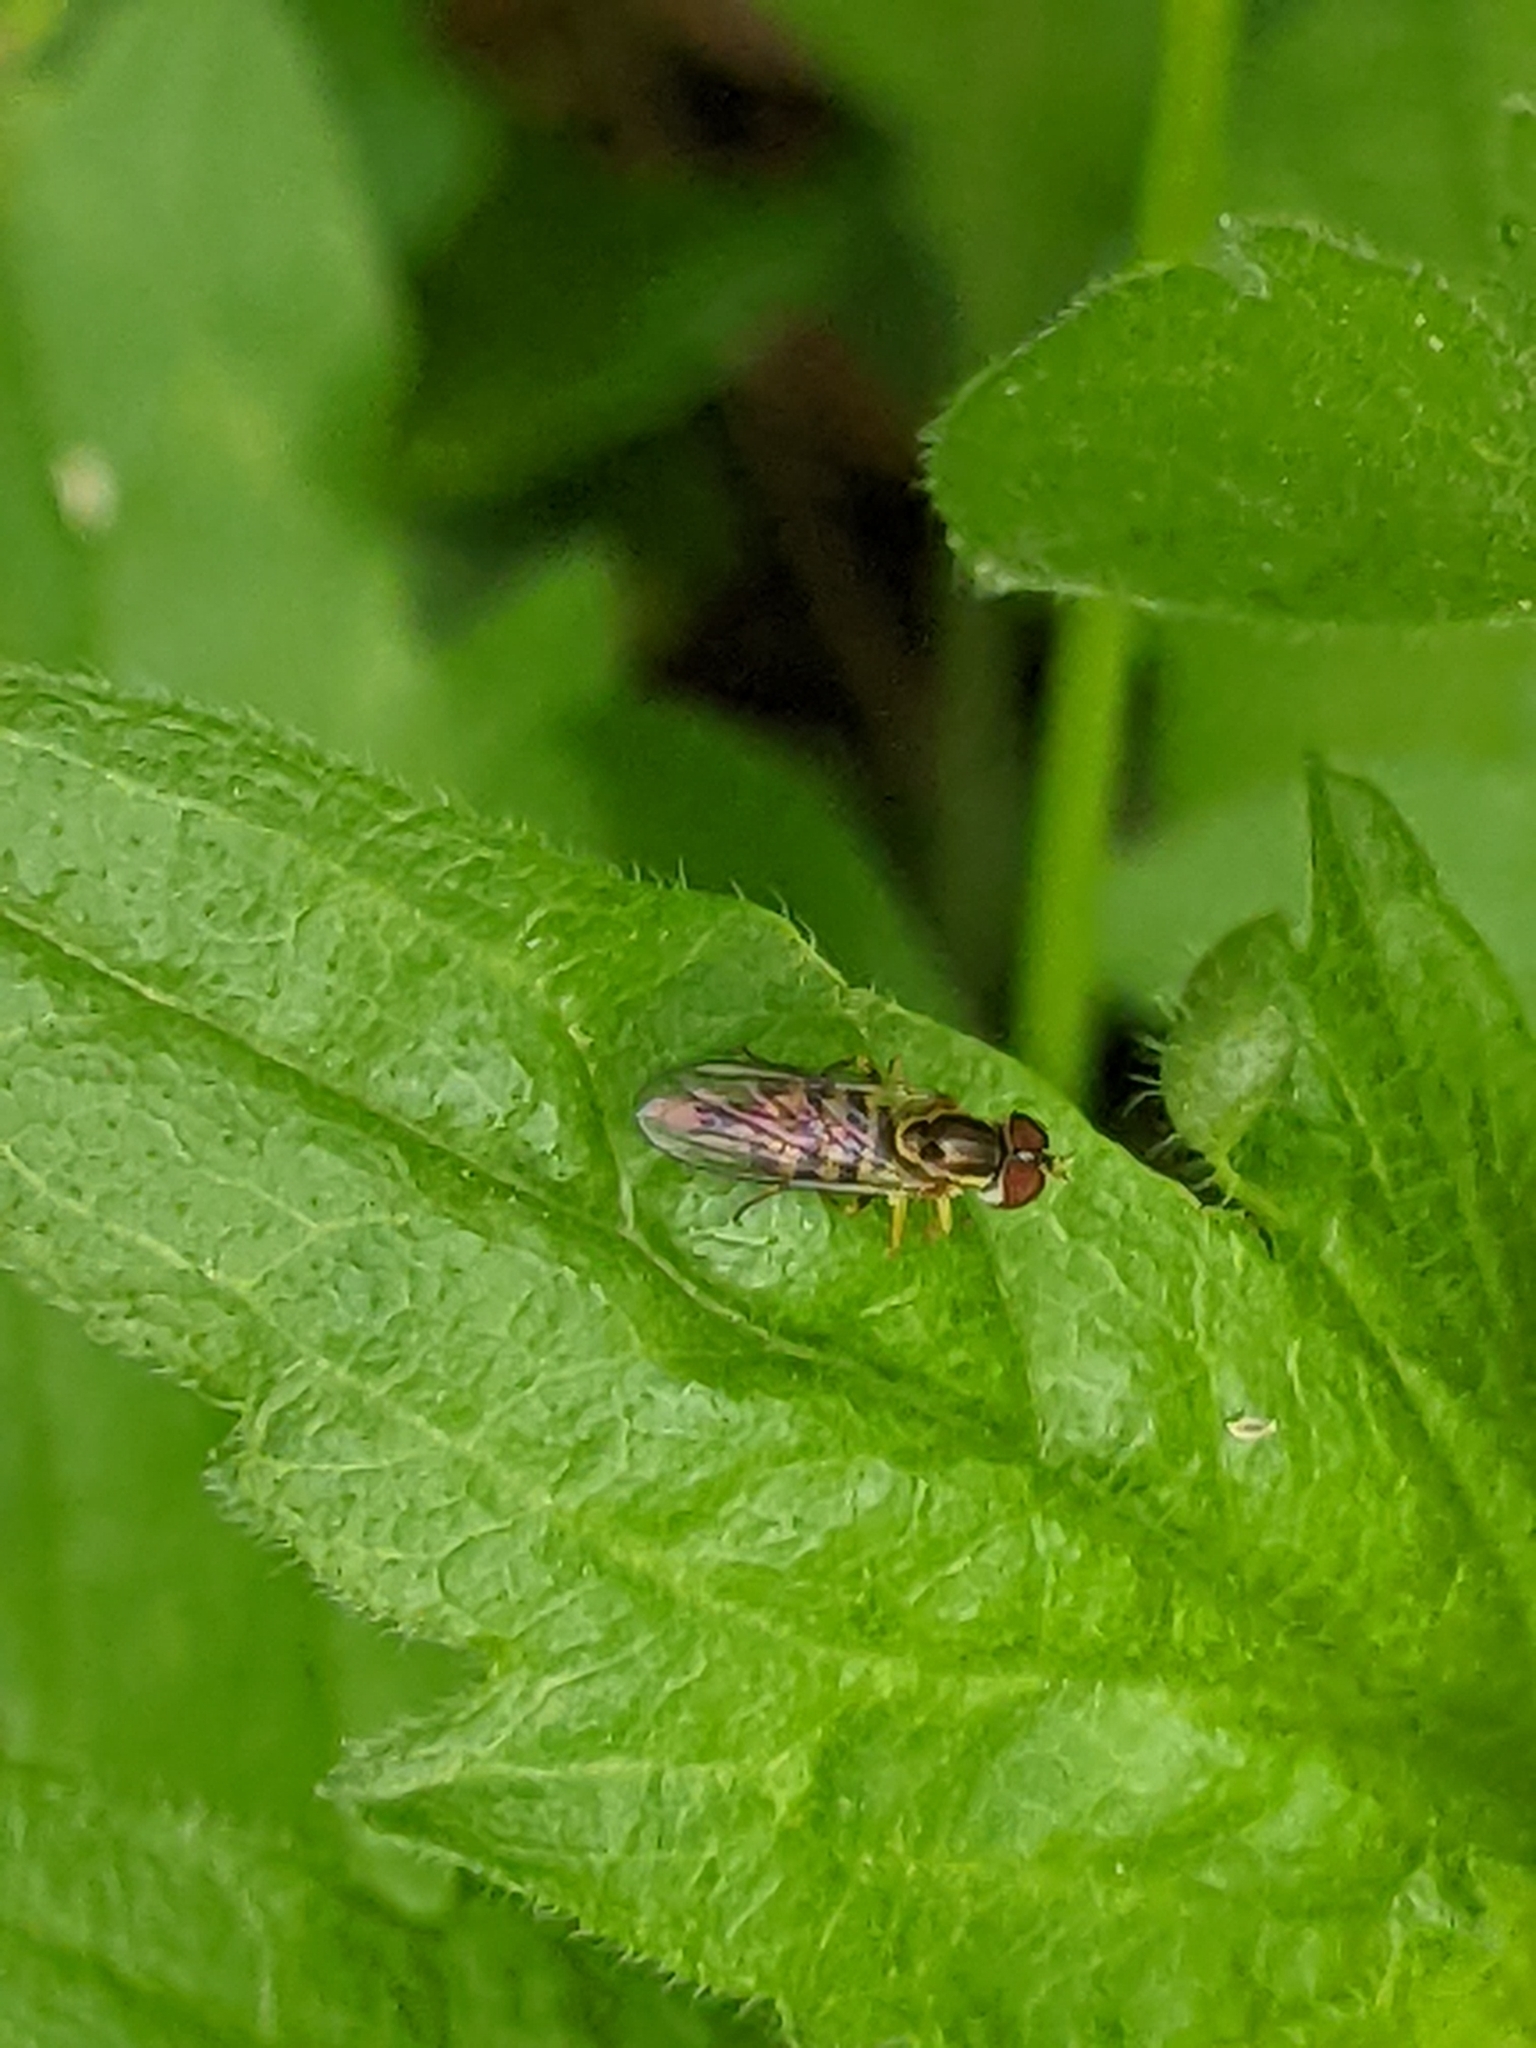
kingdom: Animalia
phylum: Arthropoda
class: Insecta
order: Diptera
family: Syrphidae
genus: Toxomerus
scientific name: Toxomerus geminatus
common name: Eastern calligrapher
